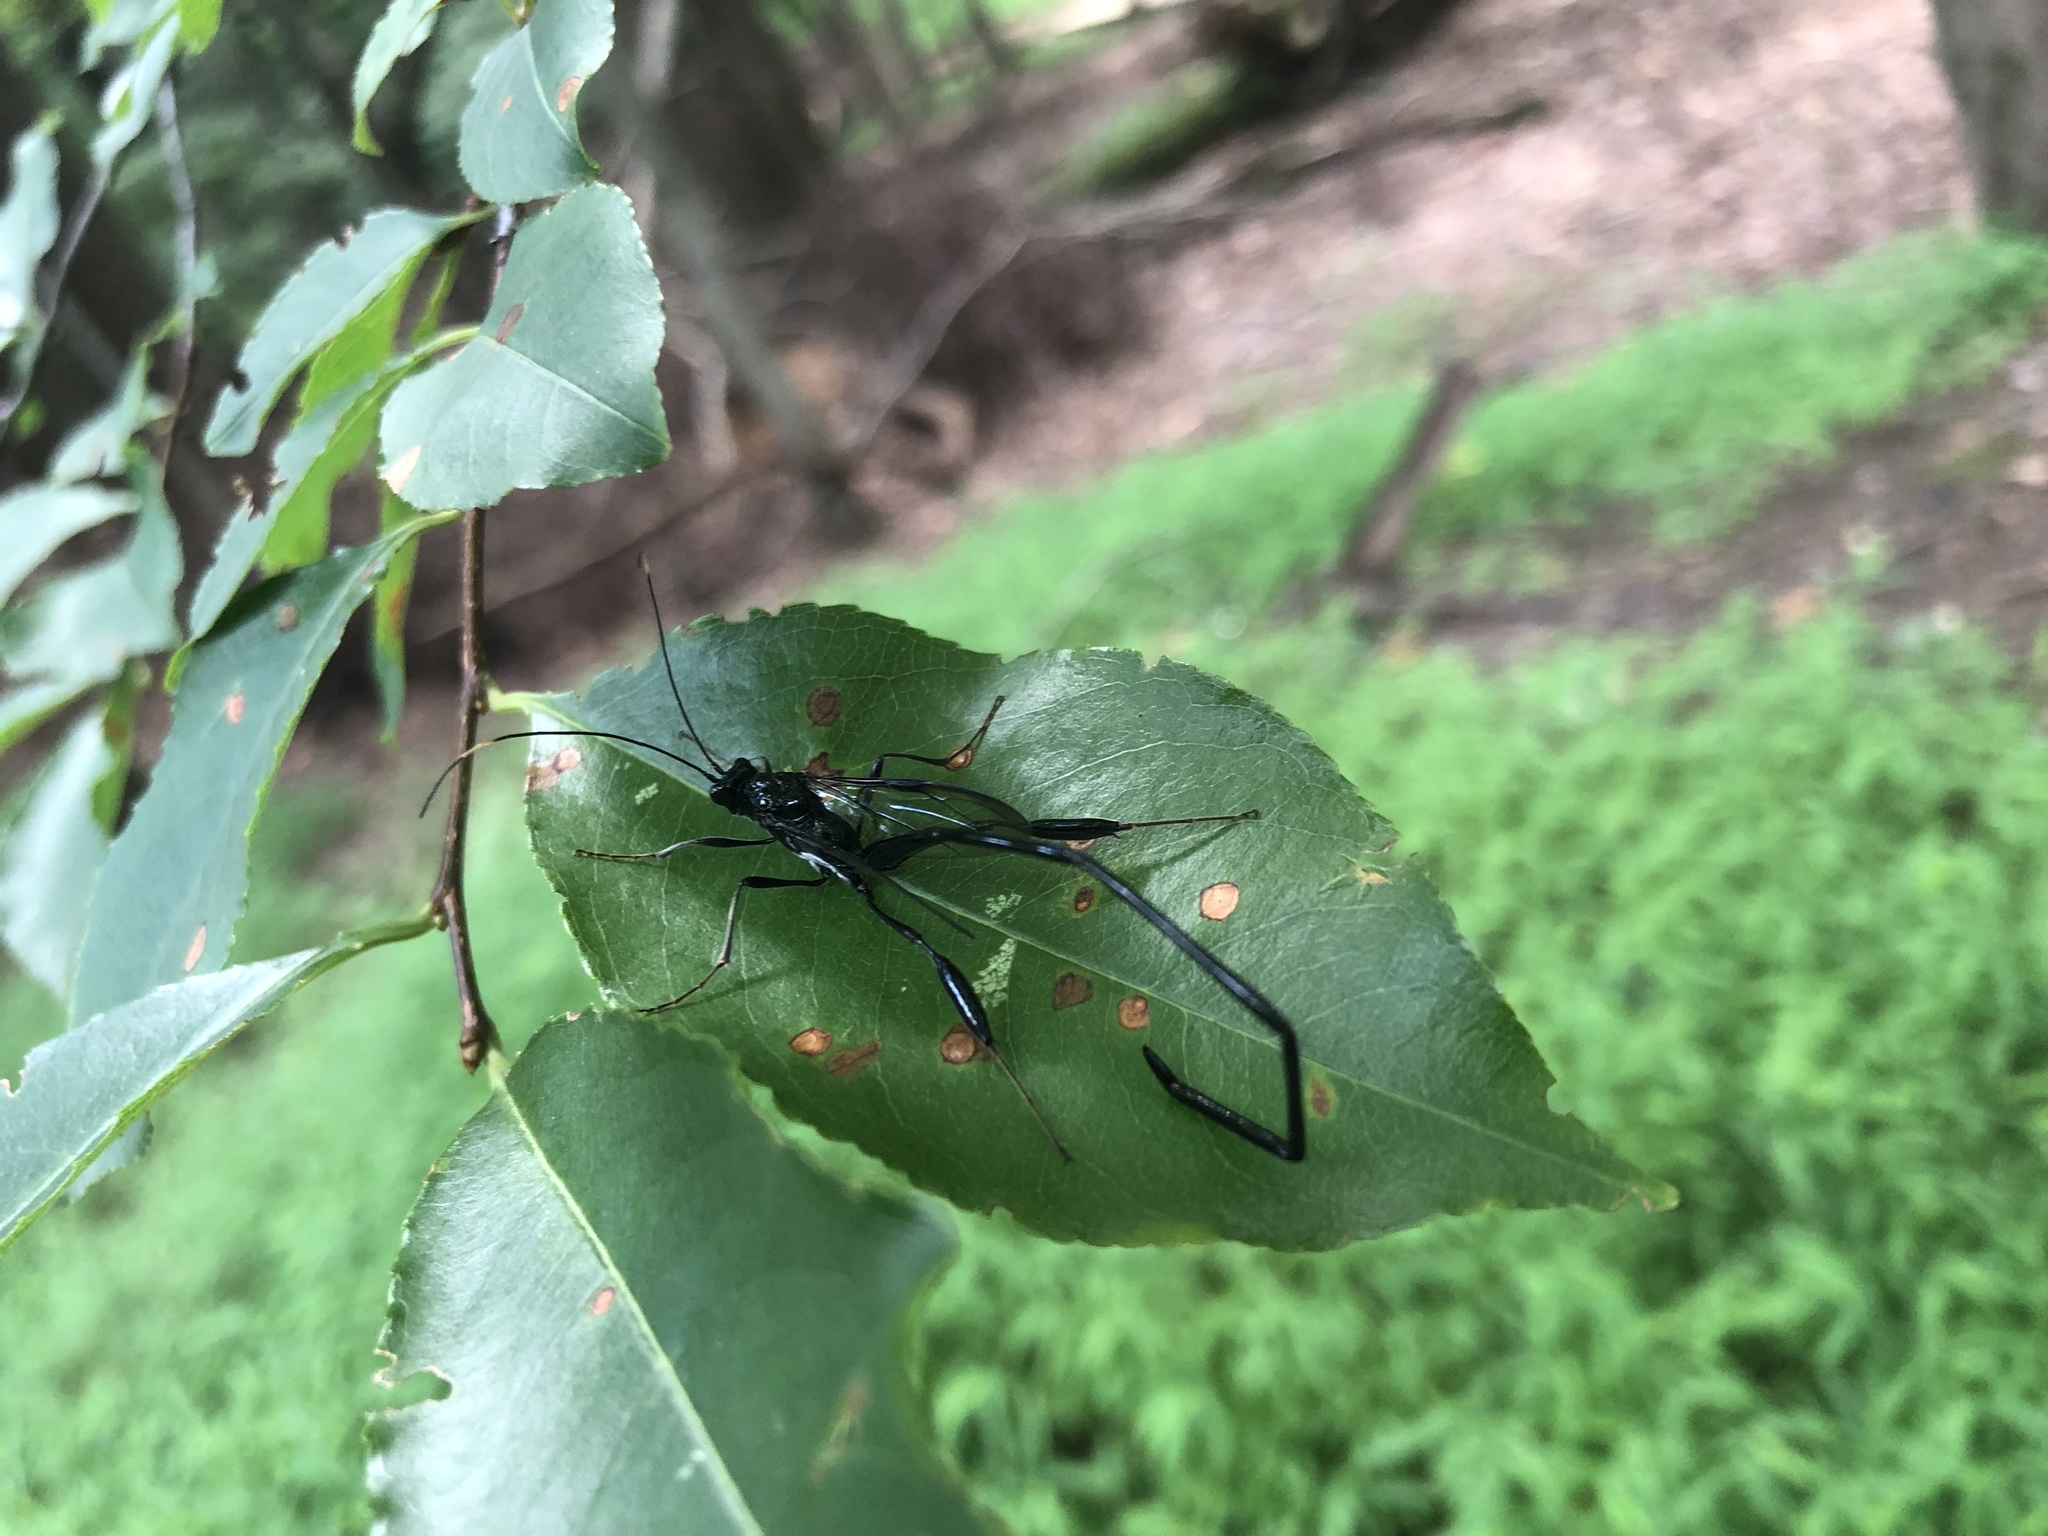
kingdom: Animalia
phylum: Arthropoda
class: Insecta
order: Hymenoptera
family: Pelecinidae
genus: Pelecinus
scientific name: Pelecinus polyturator
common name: American pelecinid wasp
